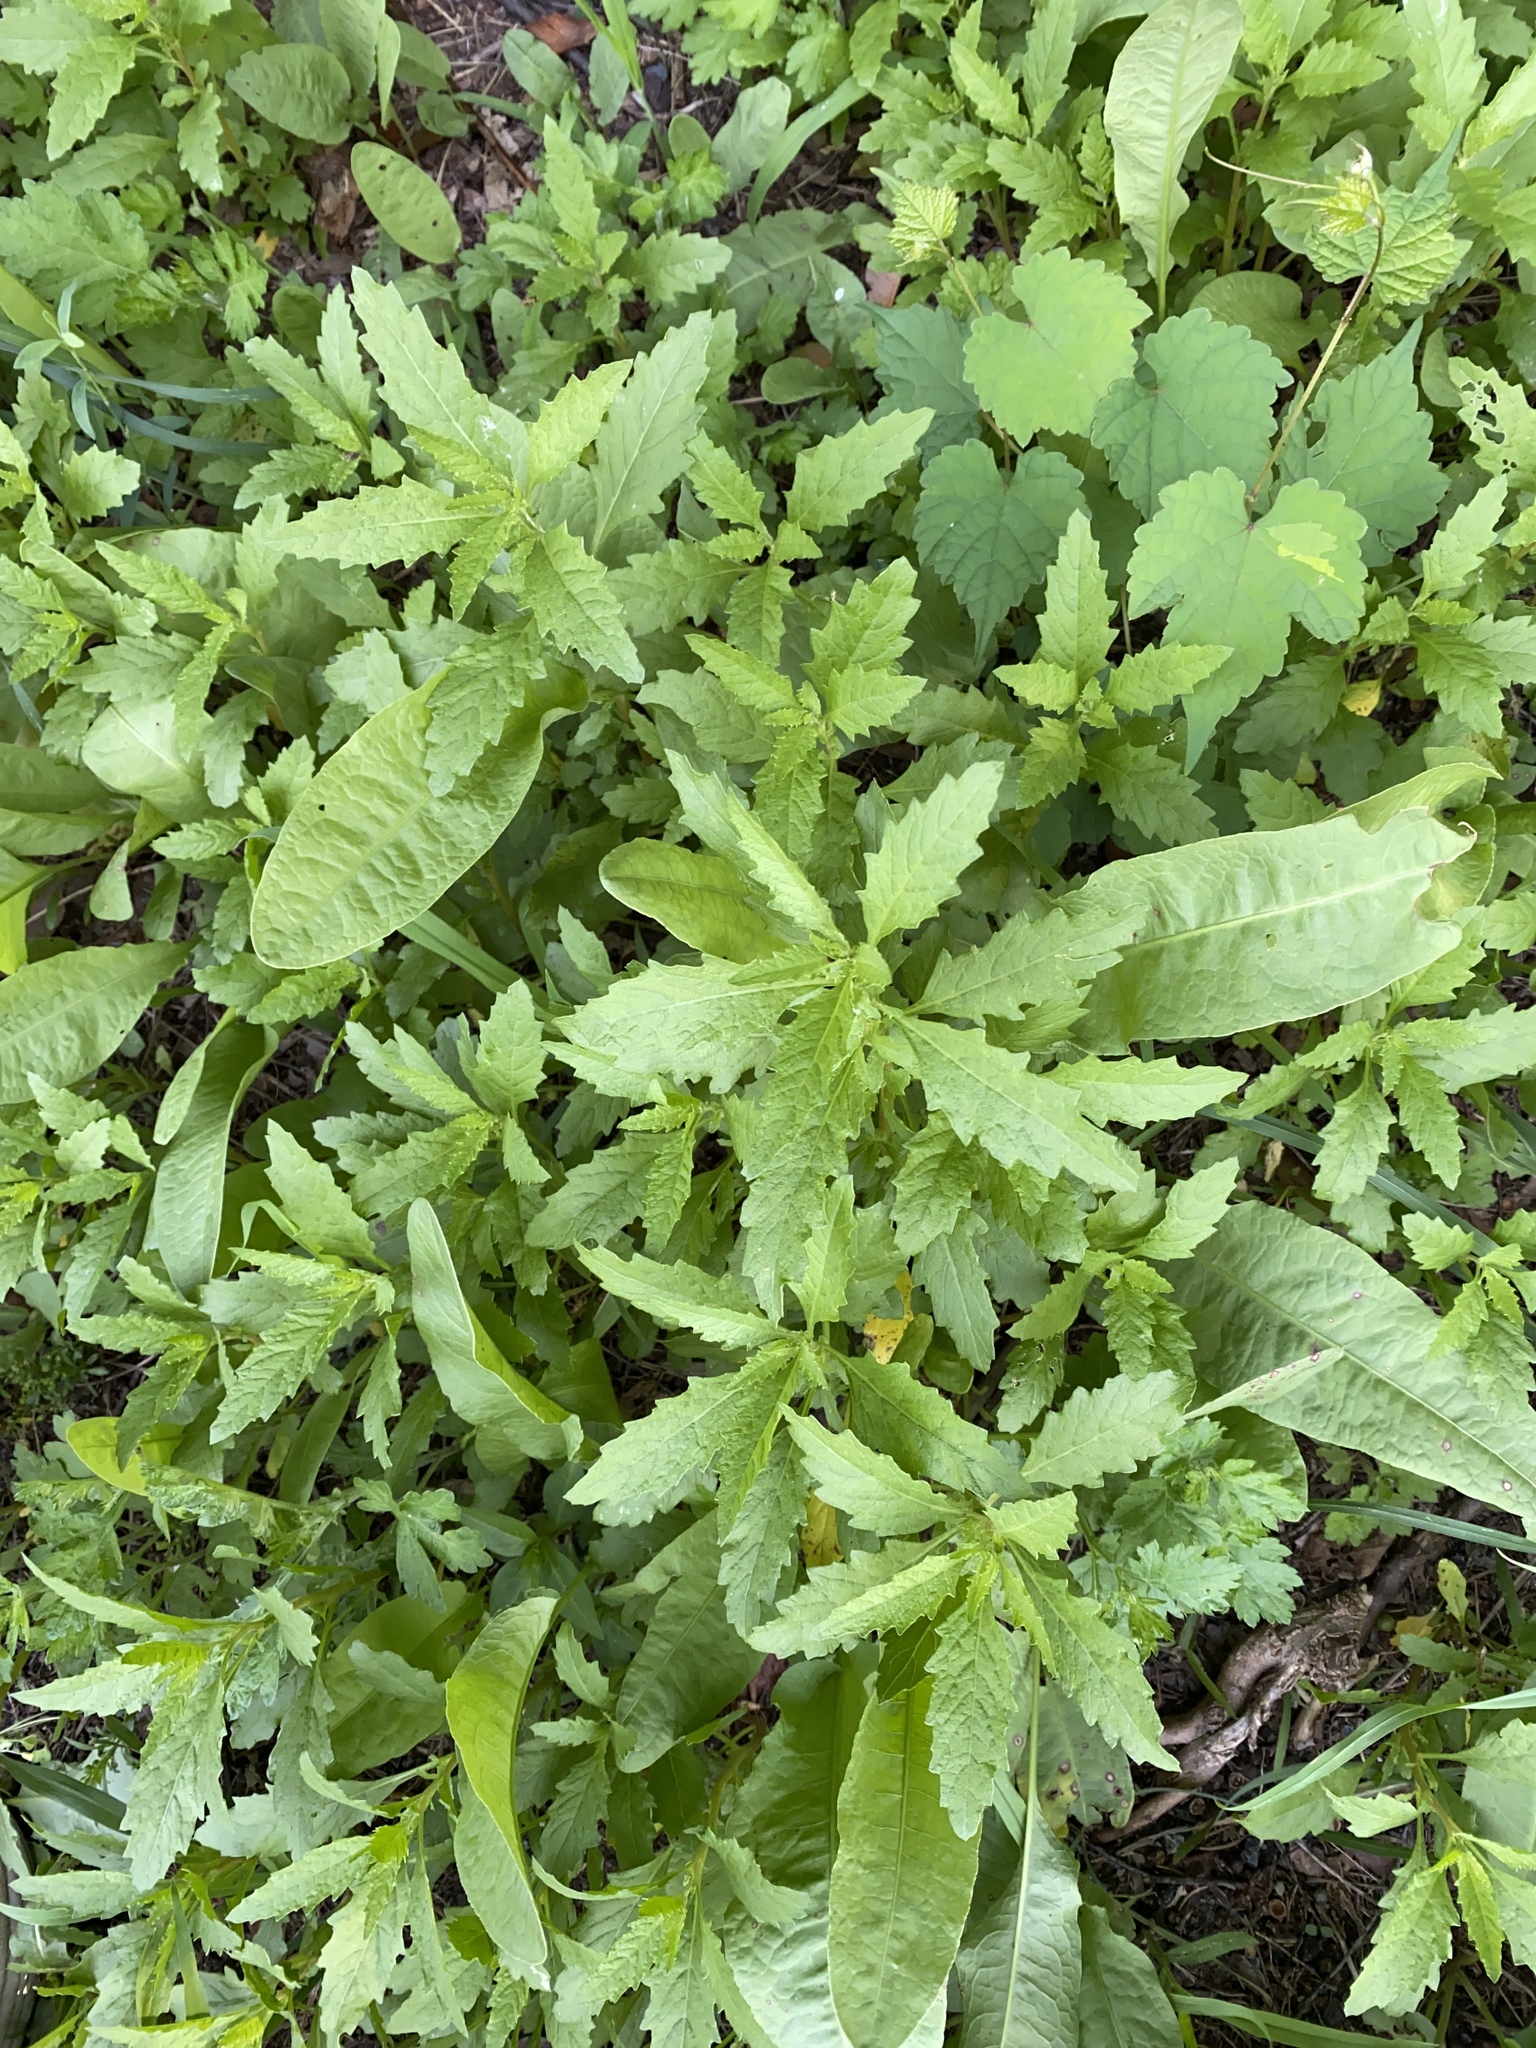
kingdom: Plantae
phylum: Tracheophyta
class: Magnoliopsida
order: Caryophyllales
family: Amaranthaceae
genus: Dysphania
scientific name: Dysphania ambrosioides
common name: Wormseed
